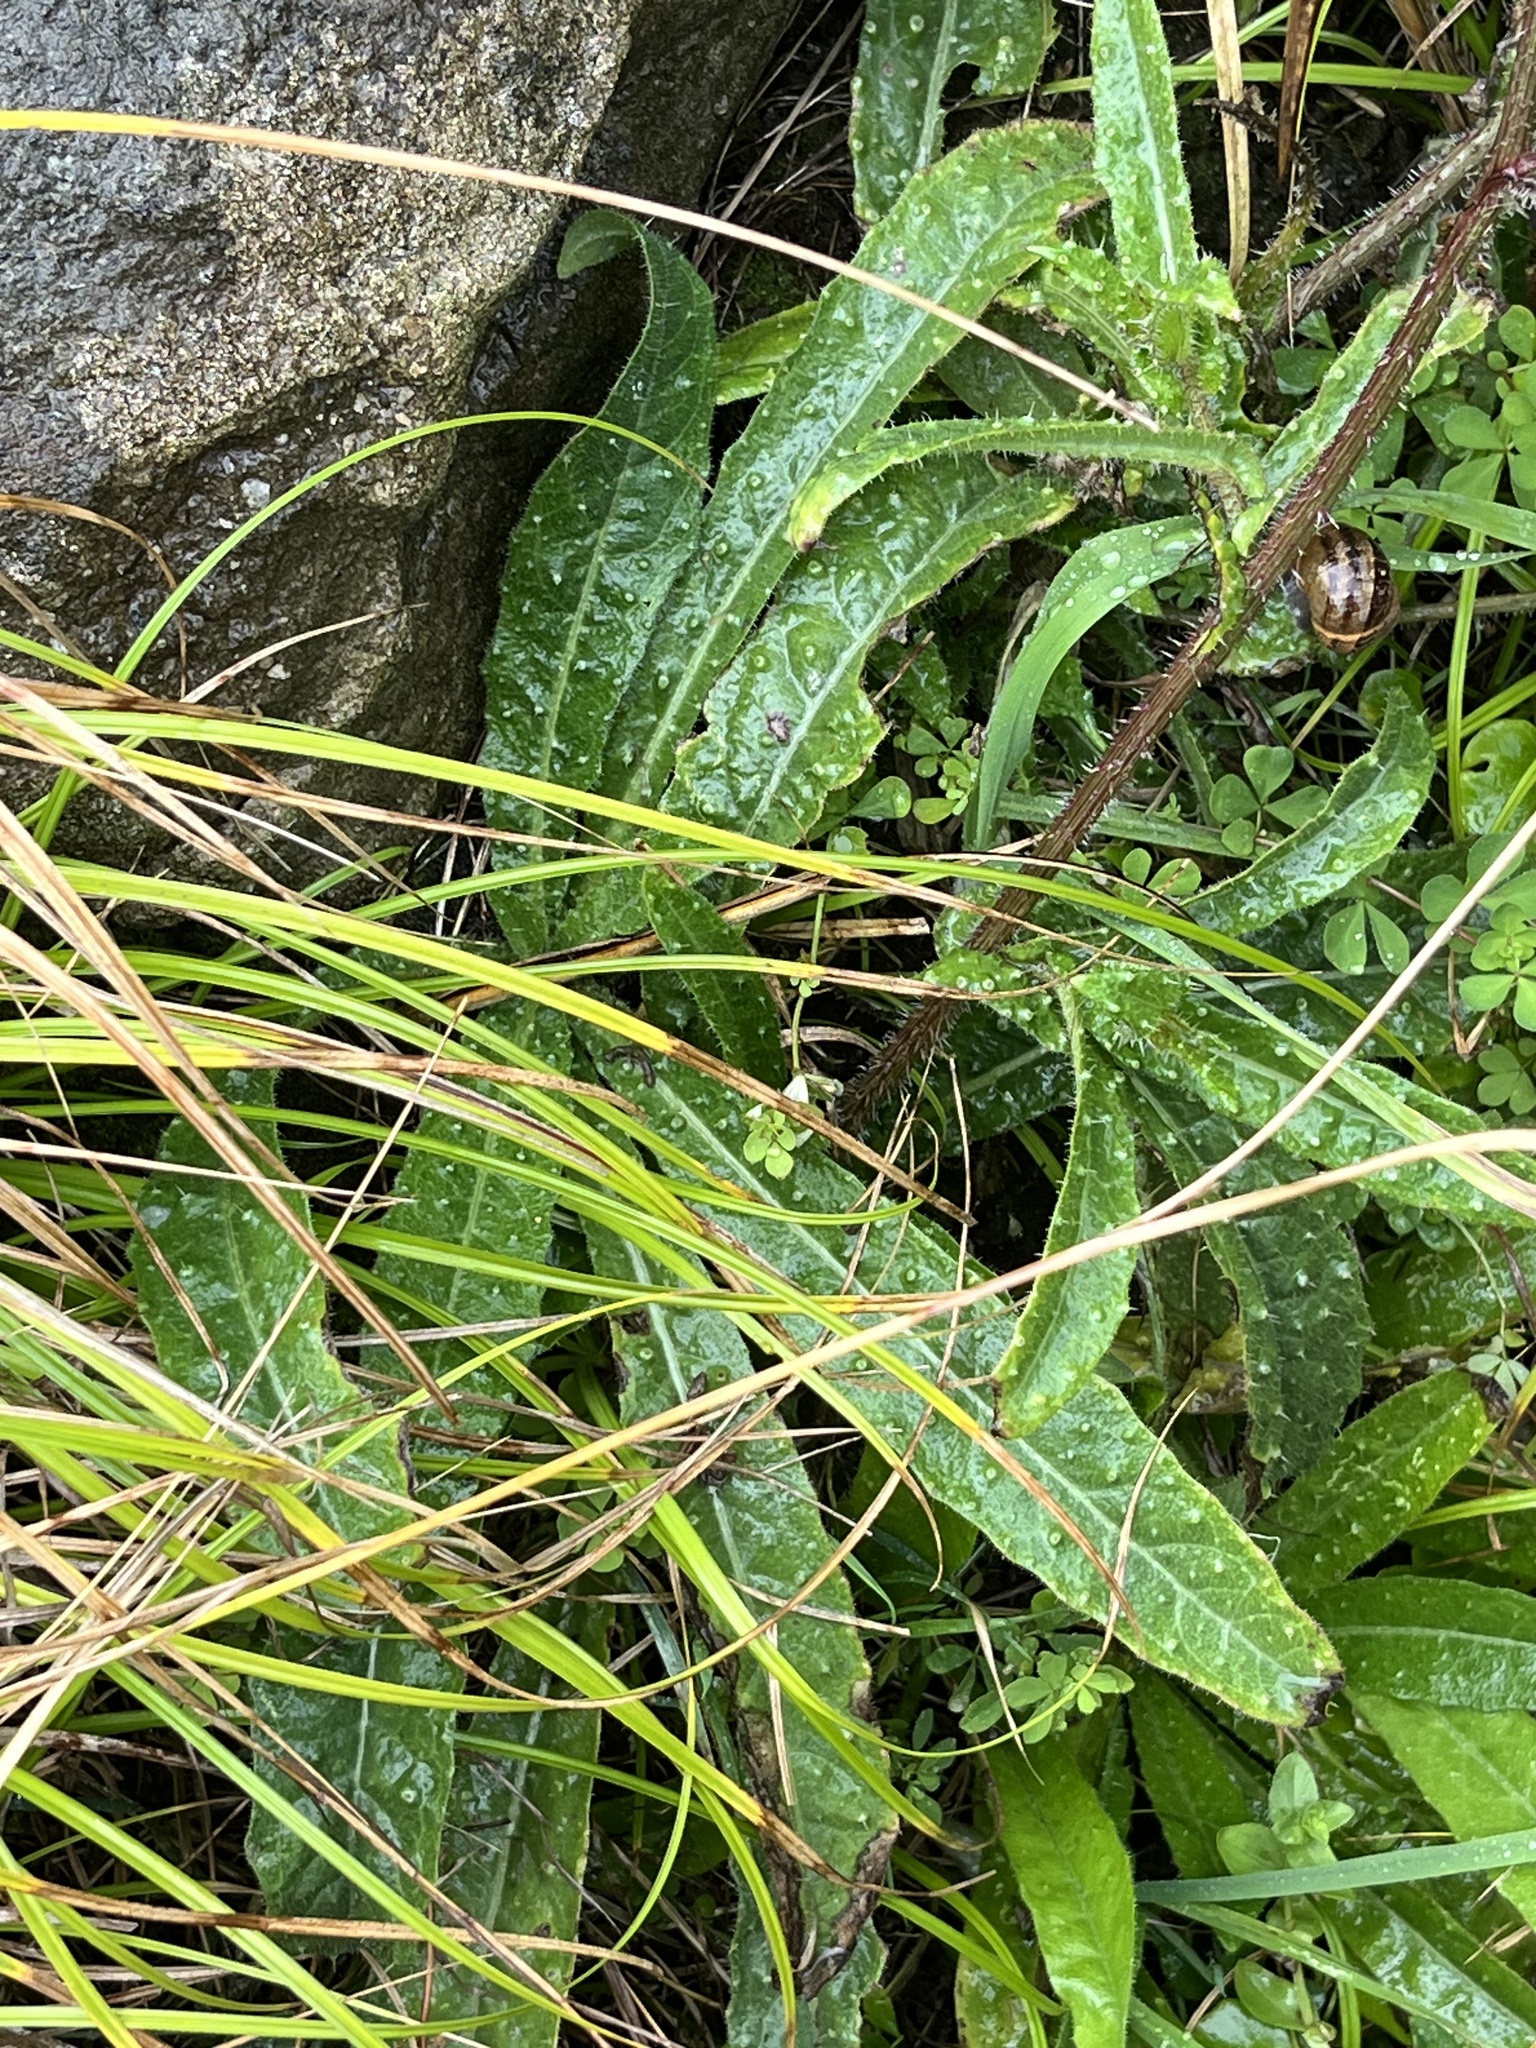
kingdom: Plantae
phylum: Tracheophyta
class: Magnoliopsida
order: Asterales
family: Asteraceae
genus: Helminthotheca
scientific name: Helminthotheca echioides
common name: Ox-tongue
